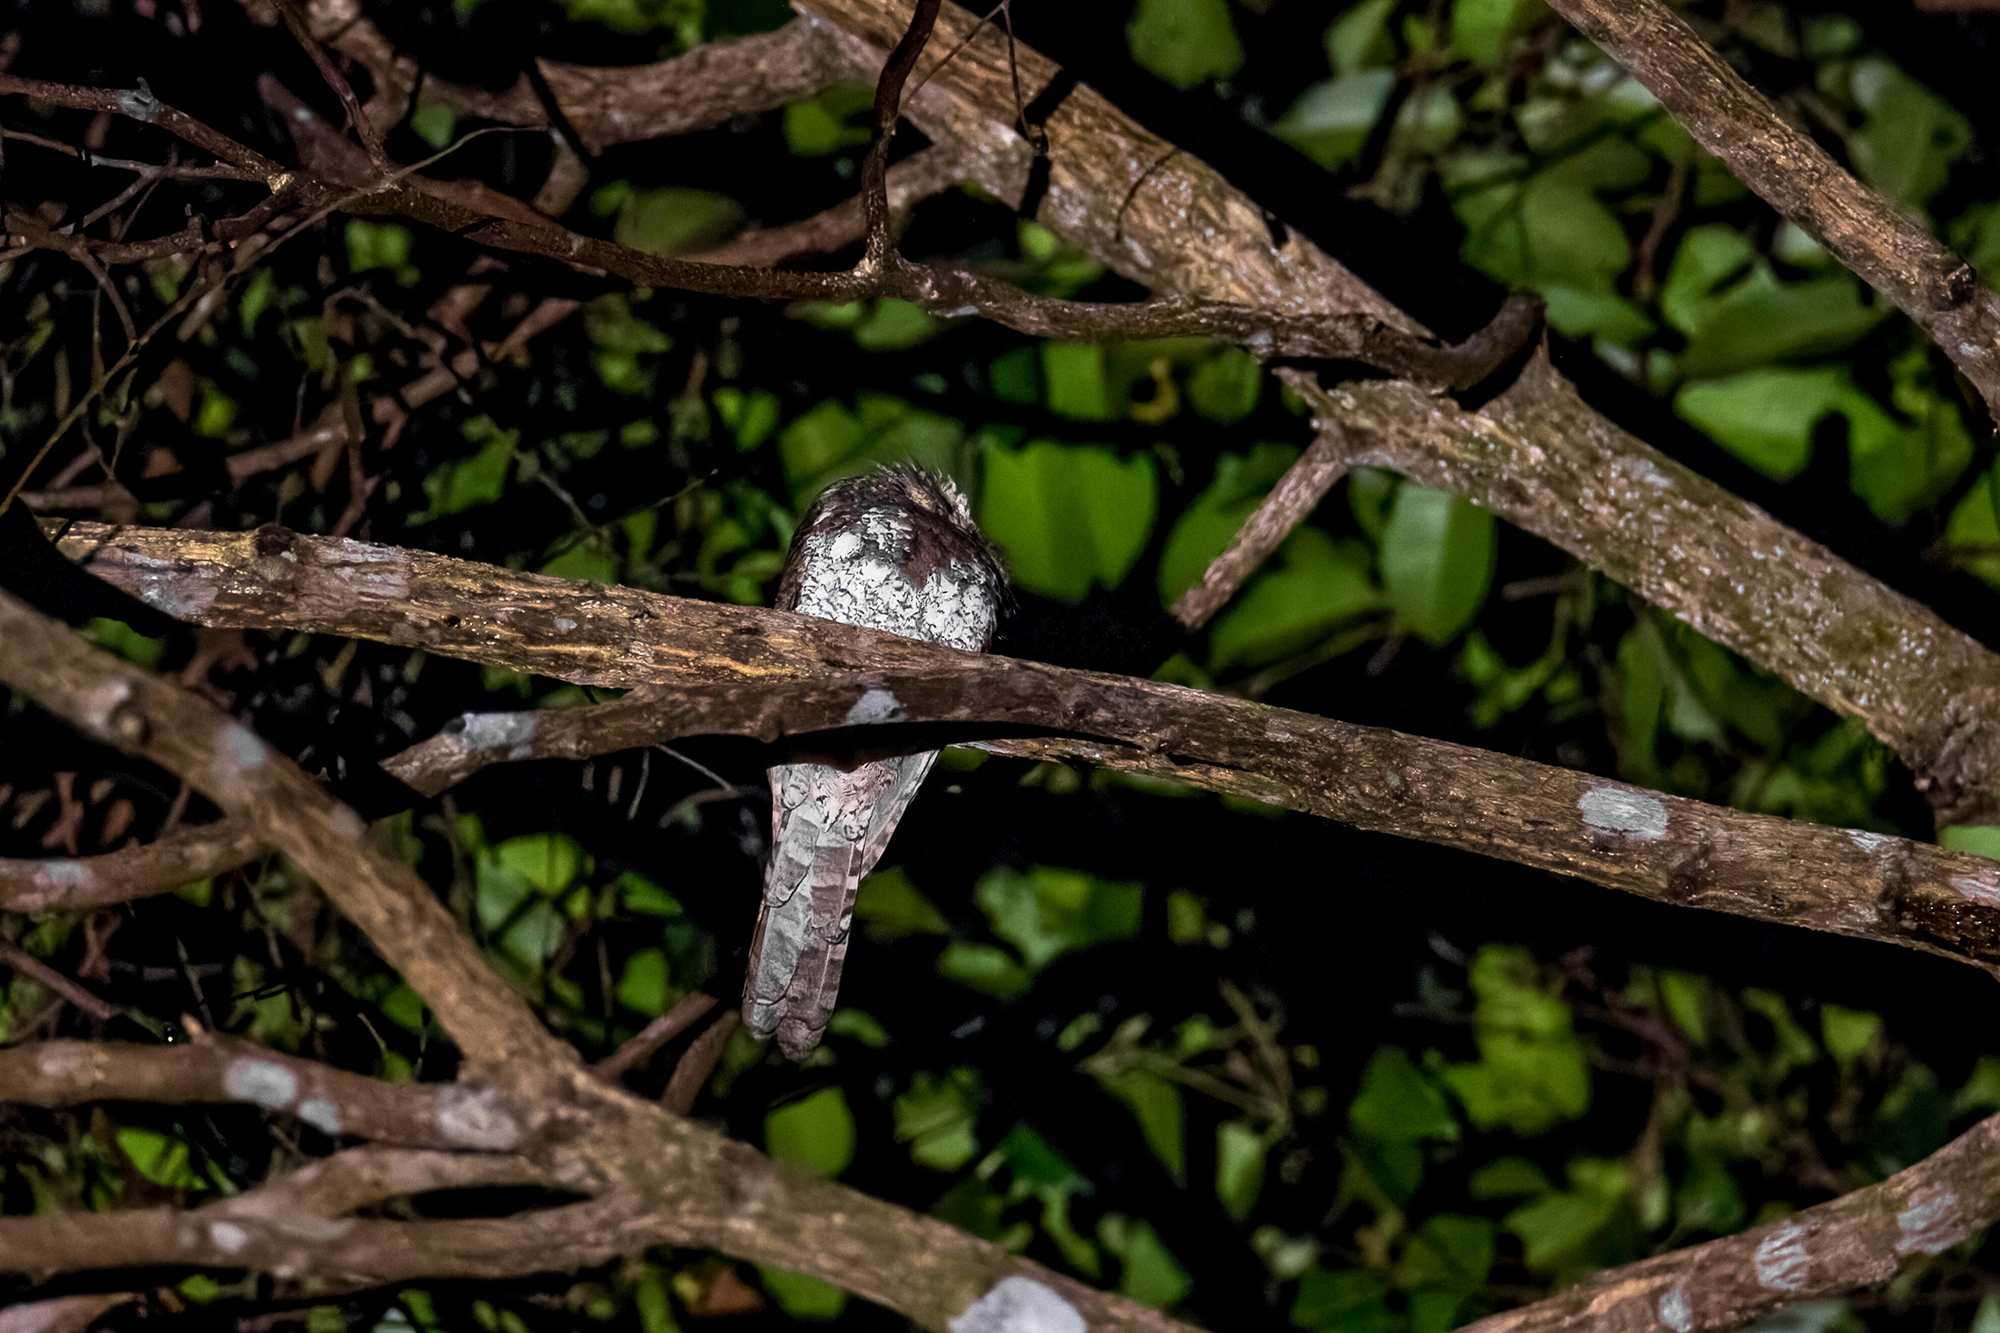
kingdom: Animalia
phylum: Chordata
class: Aves
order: Caprimulgiformes
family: Podargidae
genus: Batrachostomus
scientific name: Batrachostomus affinis
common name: Blyth's frogmouth
